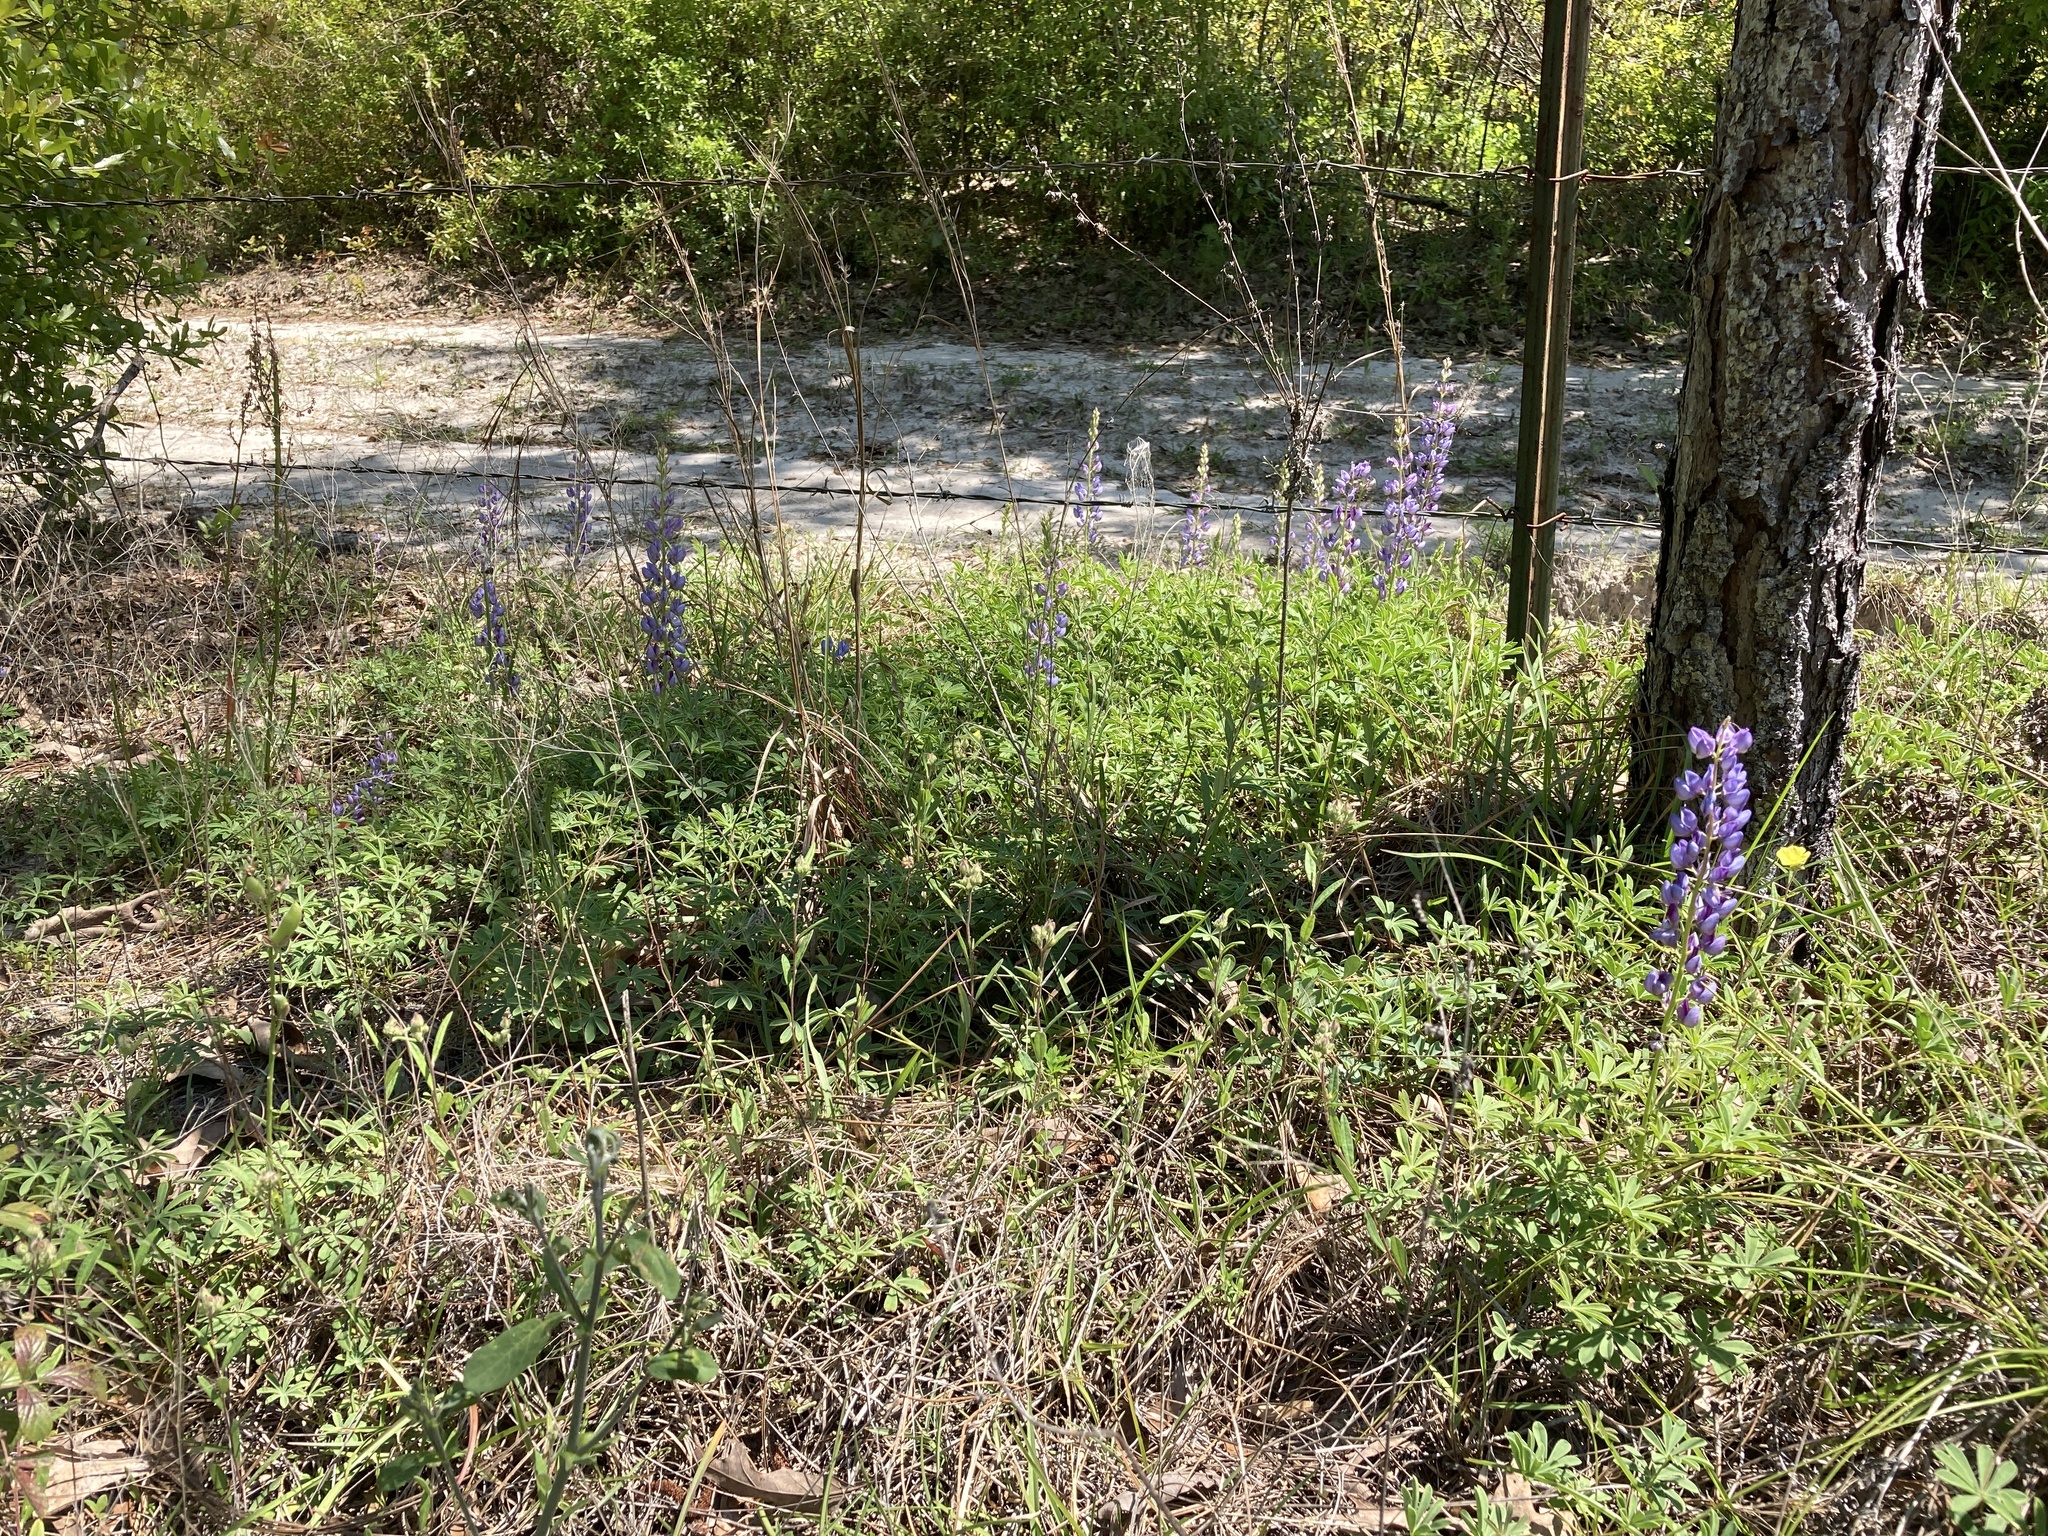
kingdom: Plantae
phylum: Tracheophyta
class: Magnoliopsida
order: Fabales
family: Fabaceae
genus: Lupinus
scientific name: Lupinus perennis
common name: Sundial lupine
